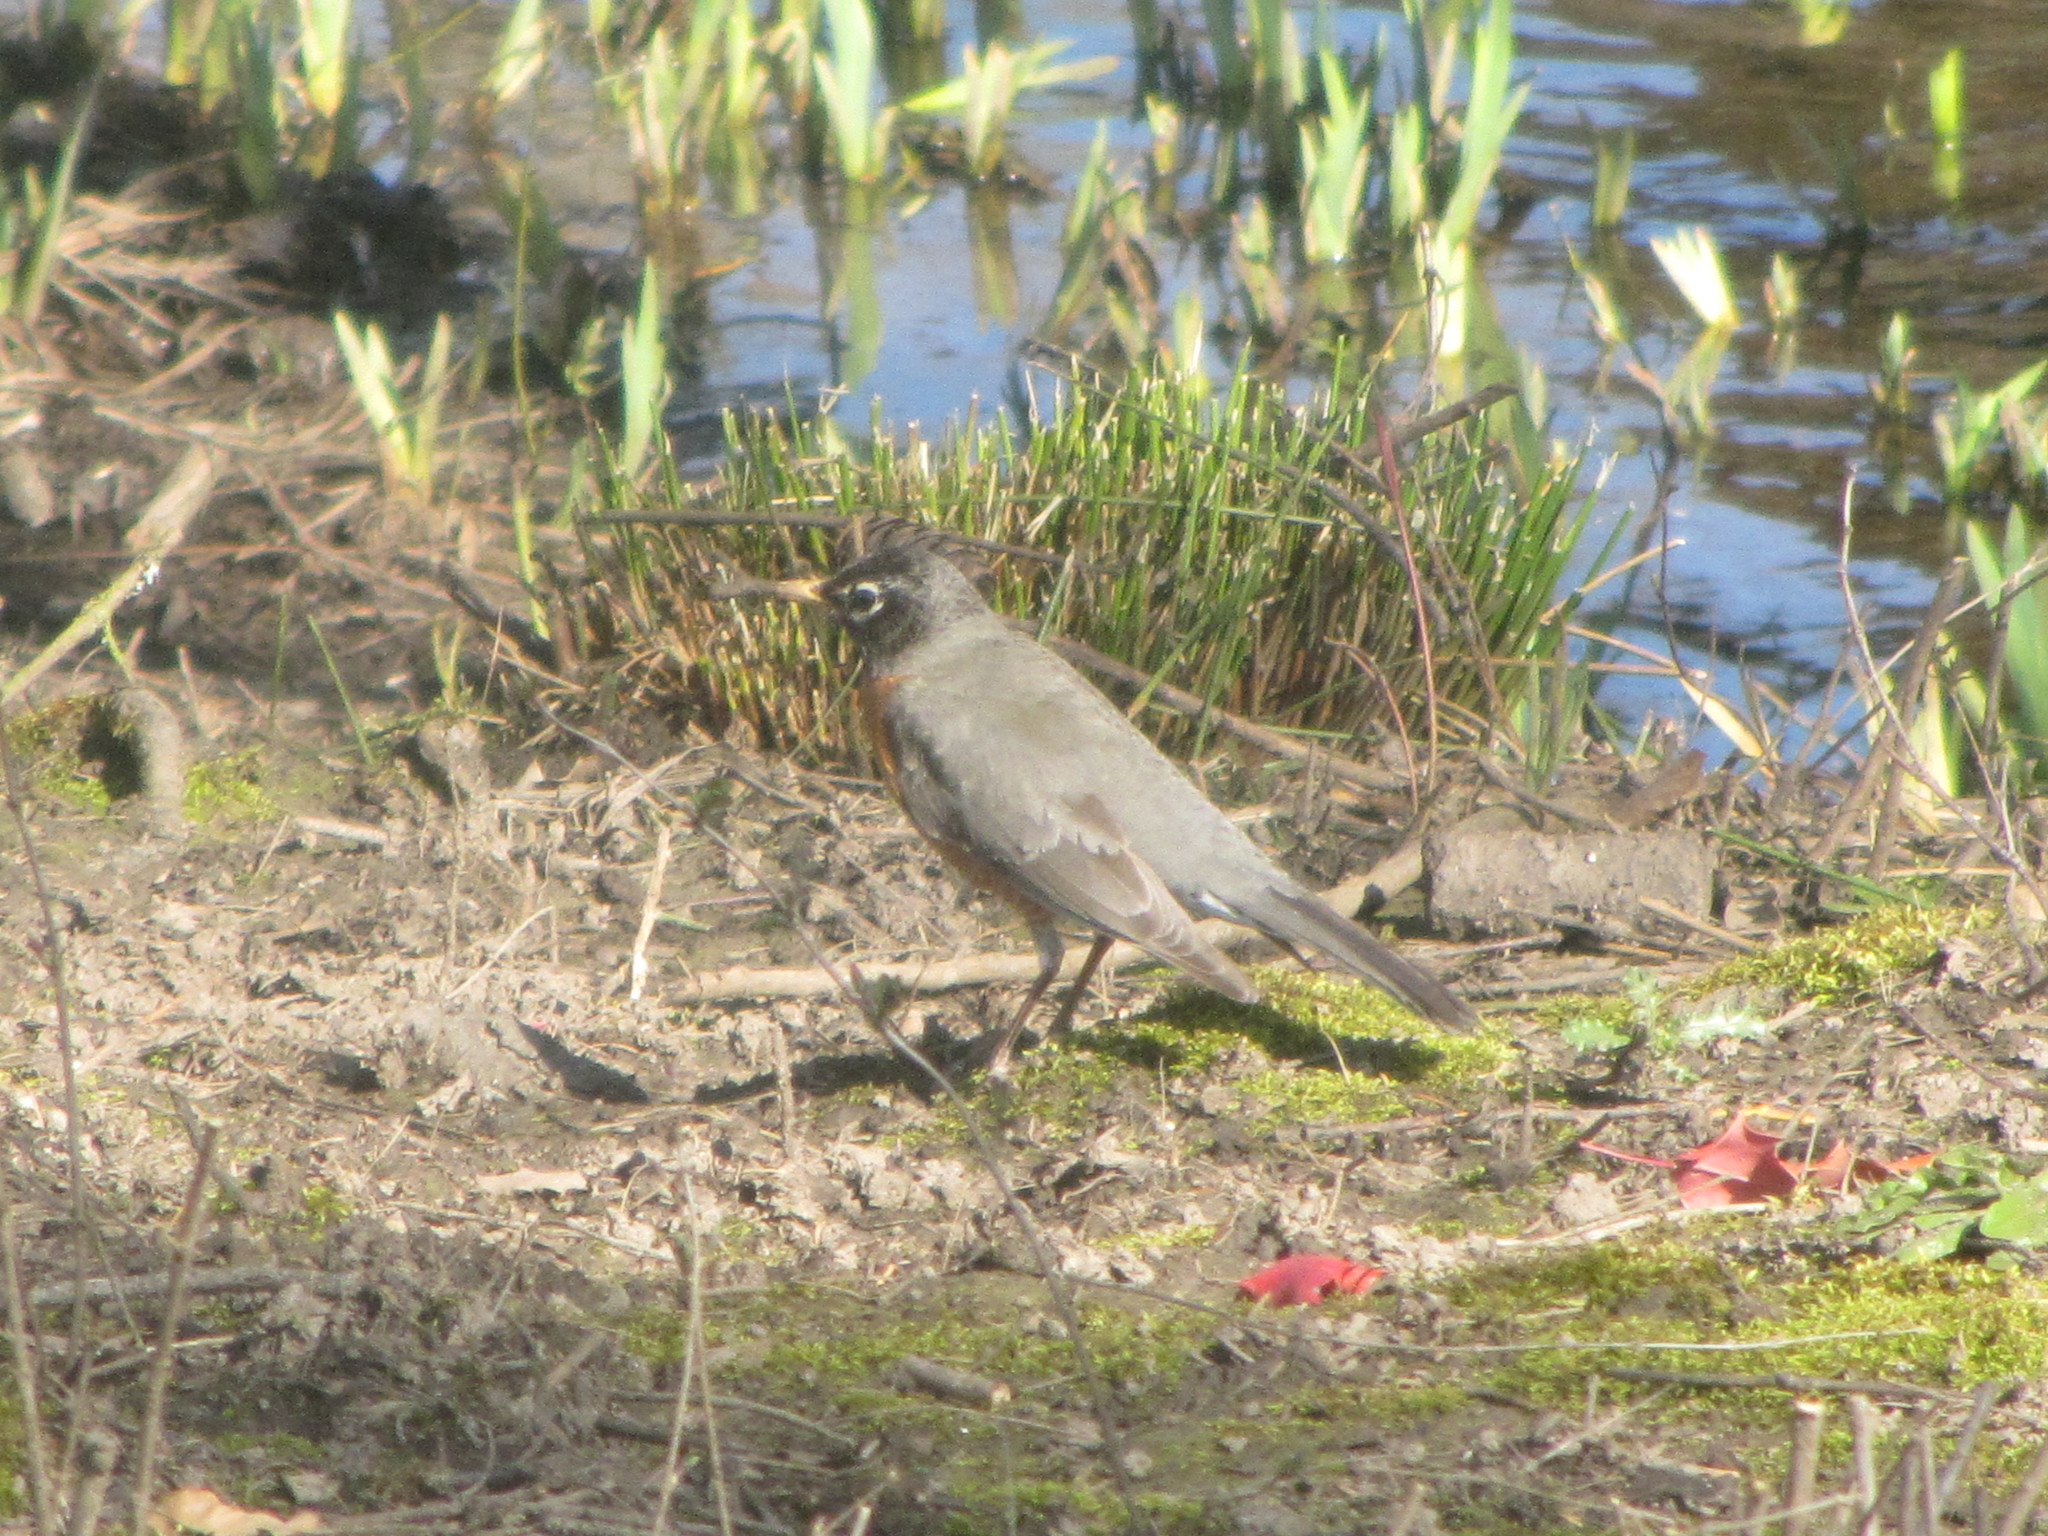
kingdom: Animalia
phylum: Chordata
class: Aves
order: Passeriformes
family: Turdidae
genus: Turdus
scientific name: Turdus migratorius
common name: American robin
